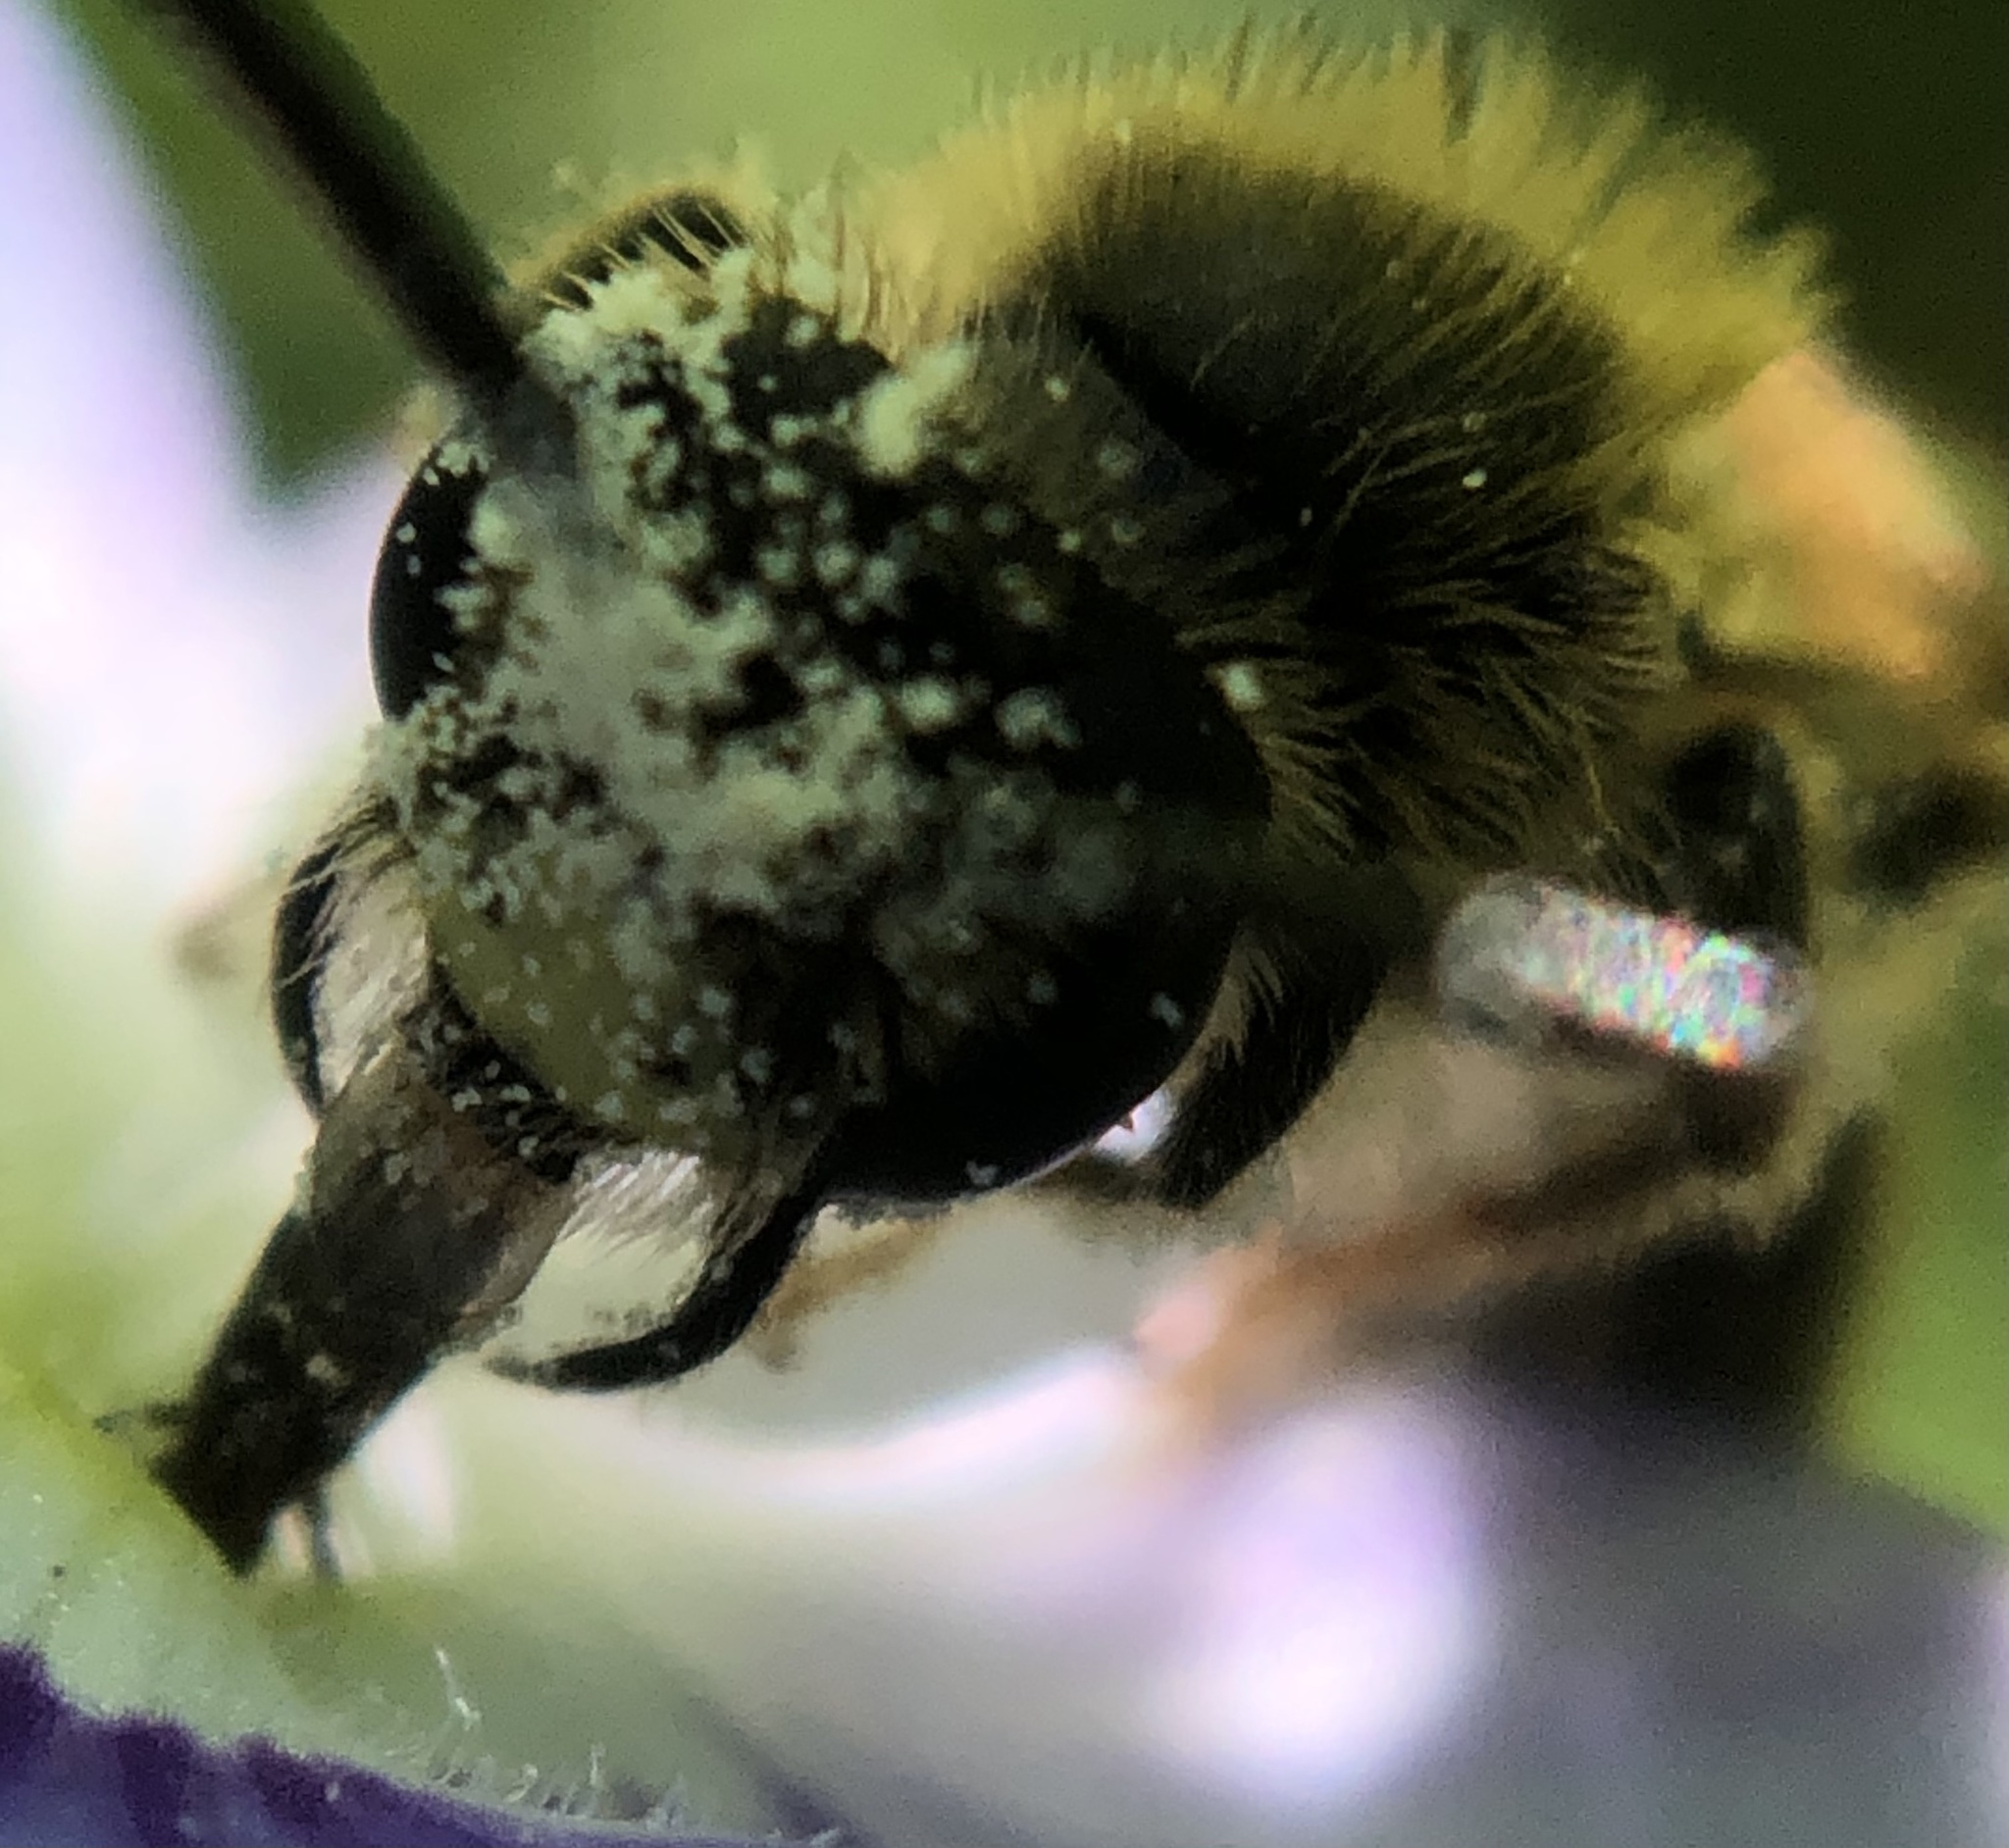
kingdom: Animalia
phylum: Arthropoda
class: Insecta
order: Hymenoptera
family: Andrenidae
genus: Andrena
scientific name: Andrena miserabilis
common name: Miserable mining bee
